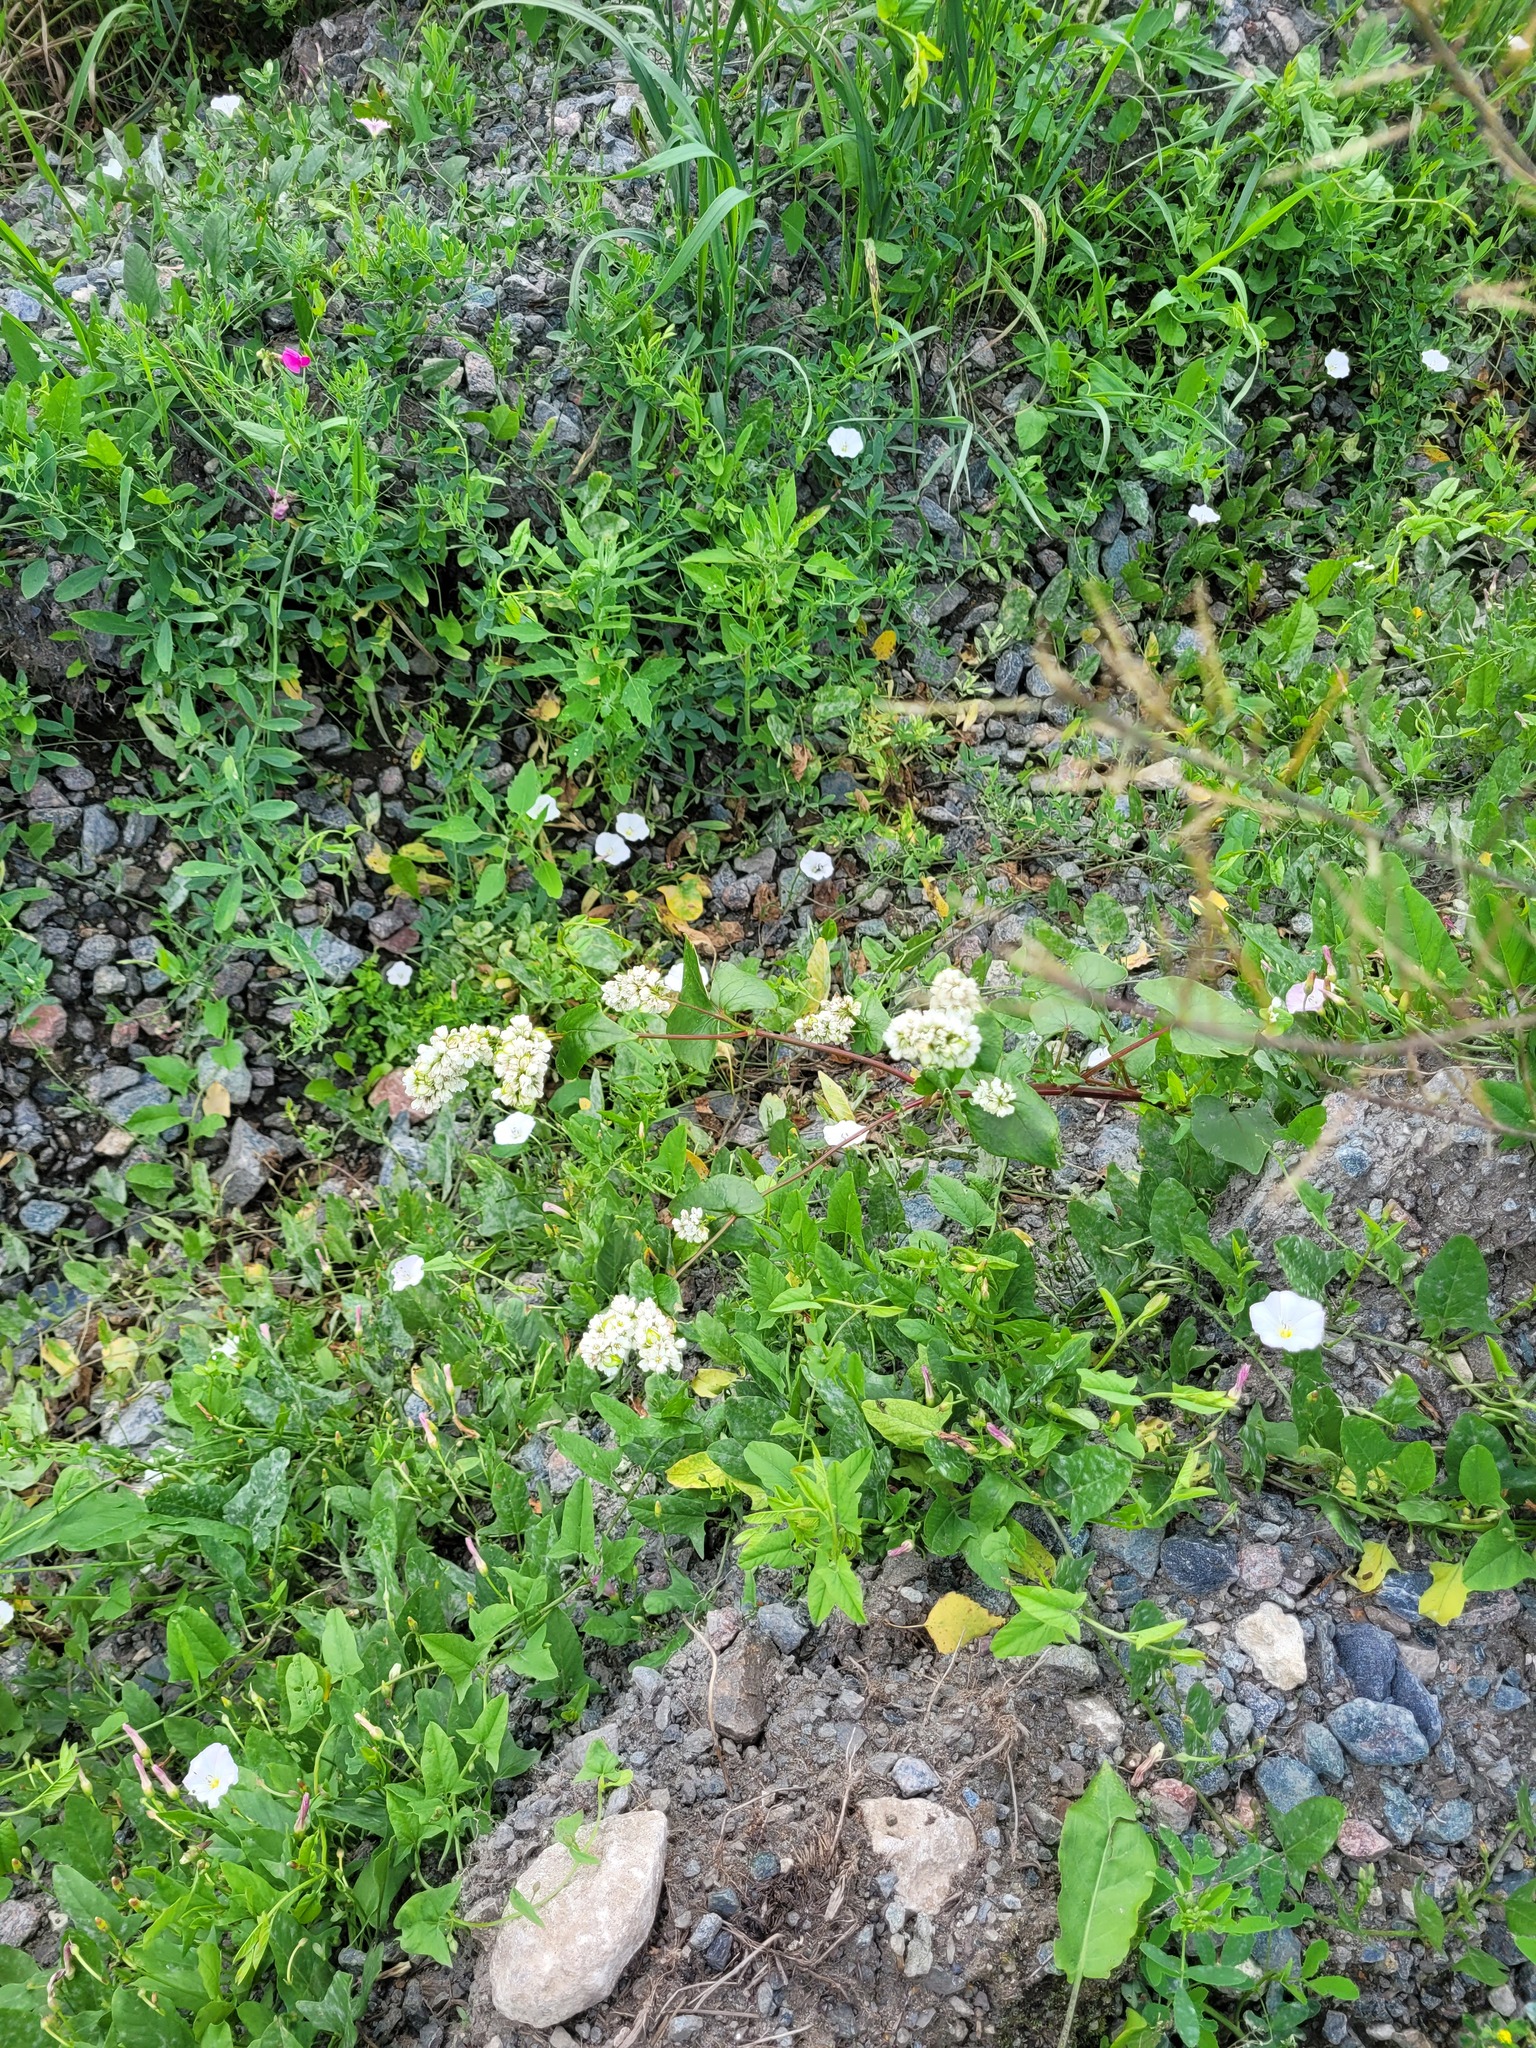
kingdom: Plantae
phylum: Tracheophyta
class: Magnoliopsida
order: Caryophyllales
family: Polygonaceae
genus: Fagopyrum
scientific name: Fagopyrum esculentum
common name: Buckwheat
